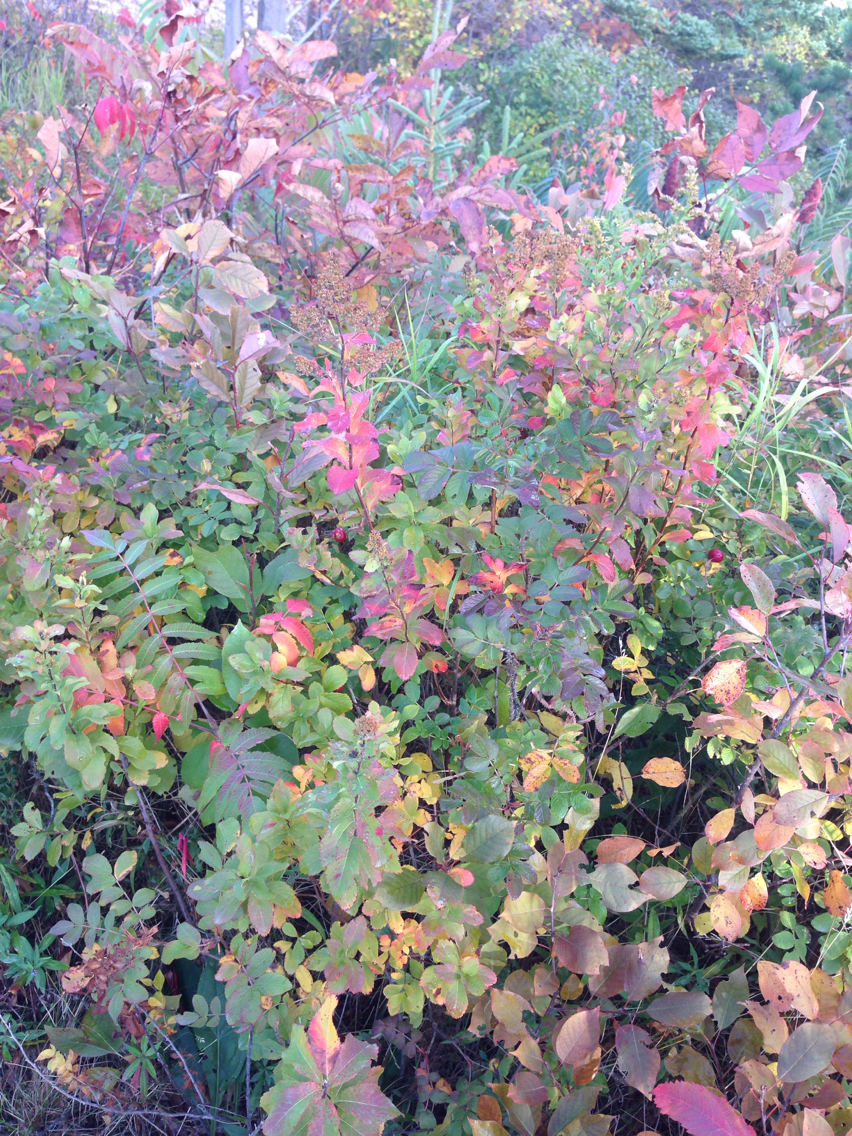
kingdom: Plantae
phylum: Tracheophyta
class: Magnoliopsida
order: Rosales
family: Rosaceae
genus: Spiraea
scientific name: Spiraea alba
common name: Pale bridewort
